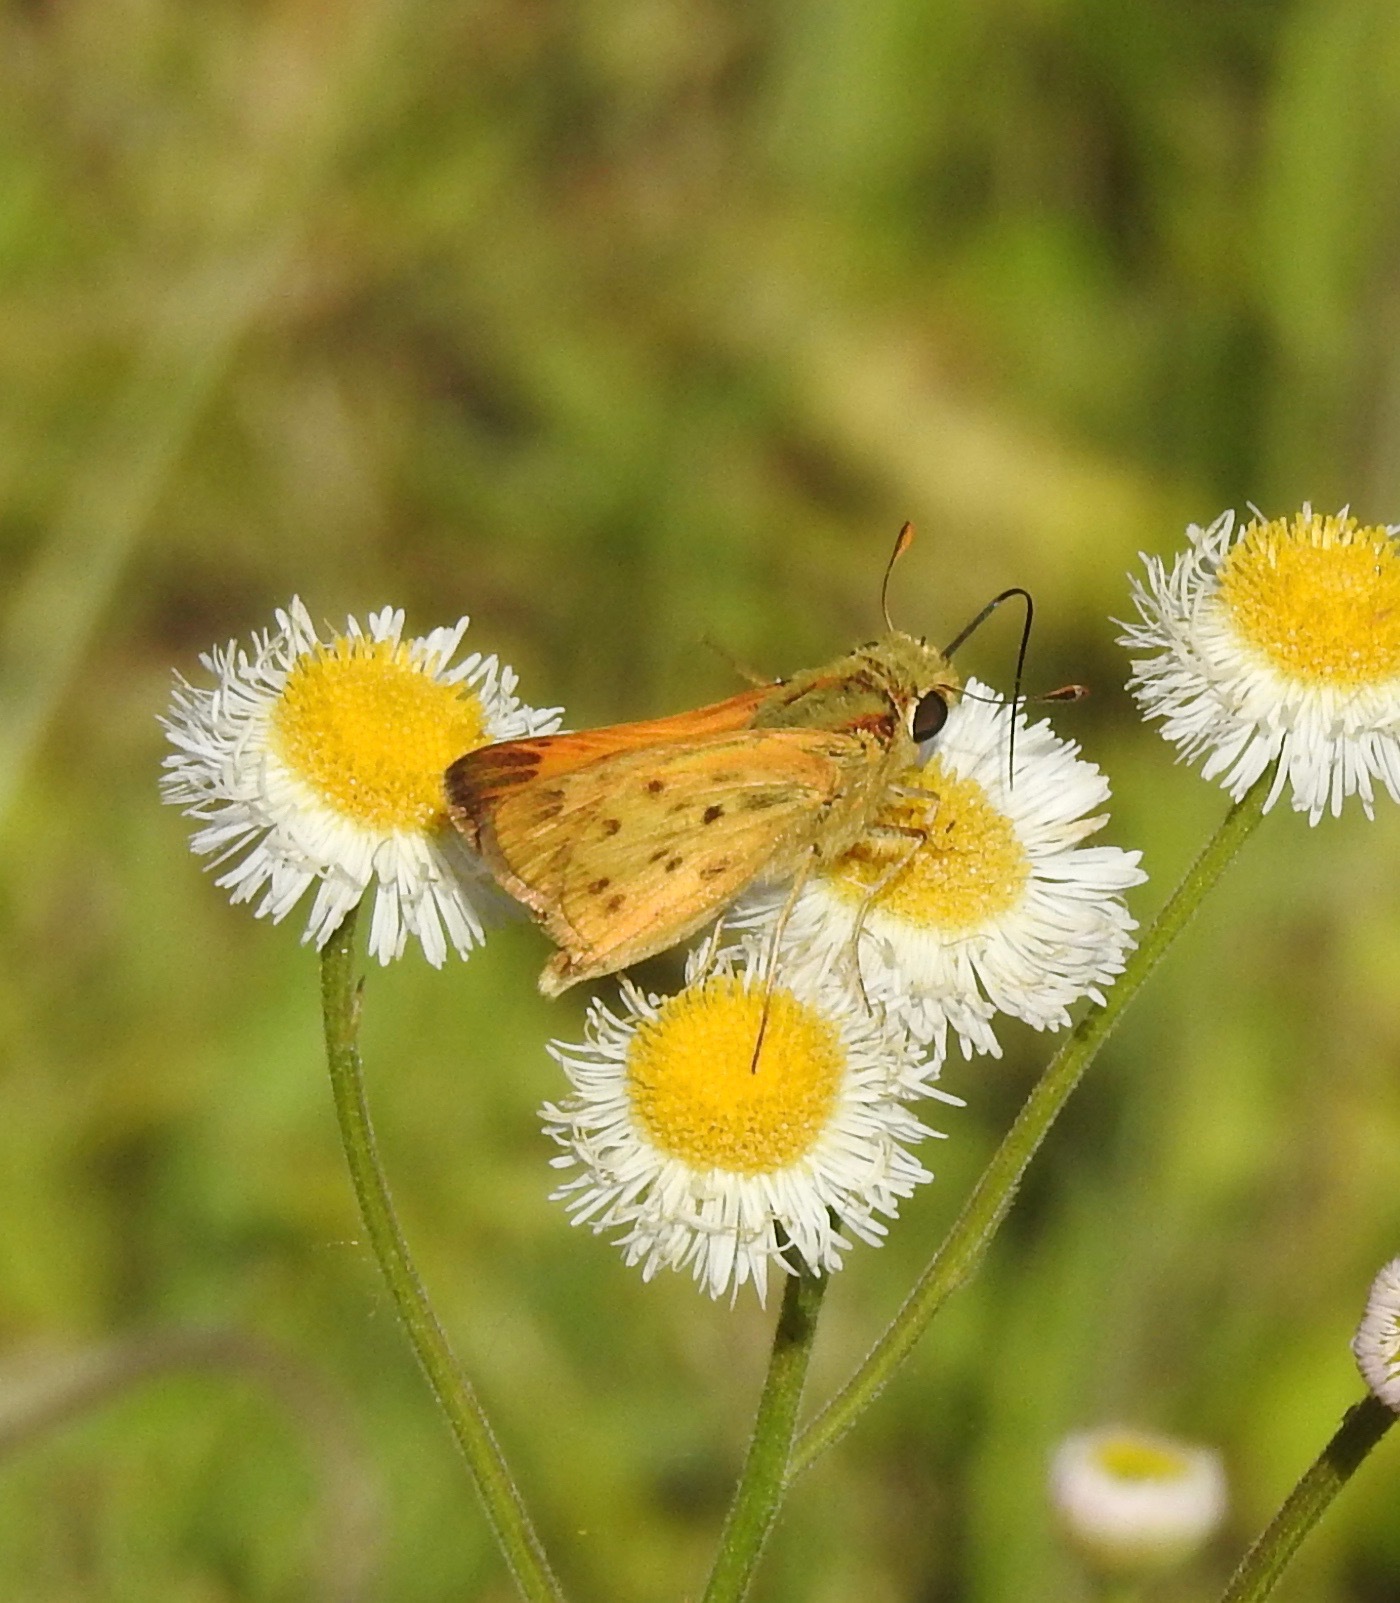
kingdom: Animalia
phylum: Arthropoda
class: Insecta
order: Lepidoptera
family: Hesperiidae
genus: Hylephila
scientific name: Hylephila phyleus
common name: Fiery skipper
